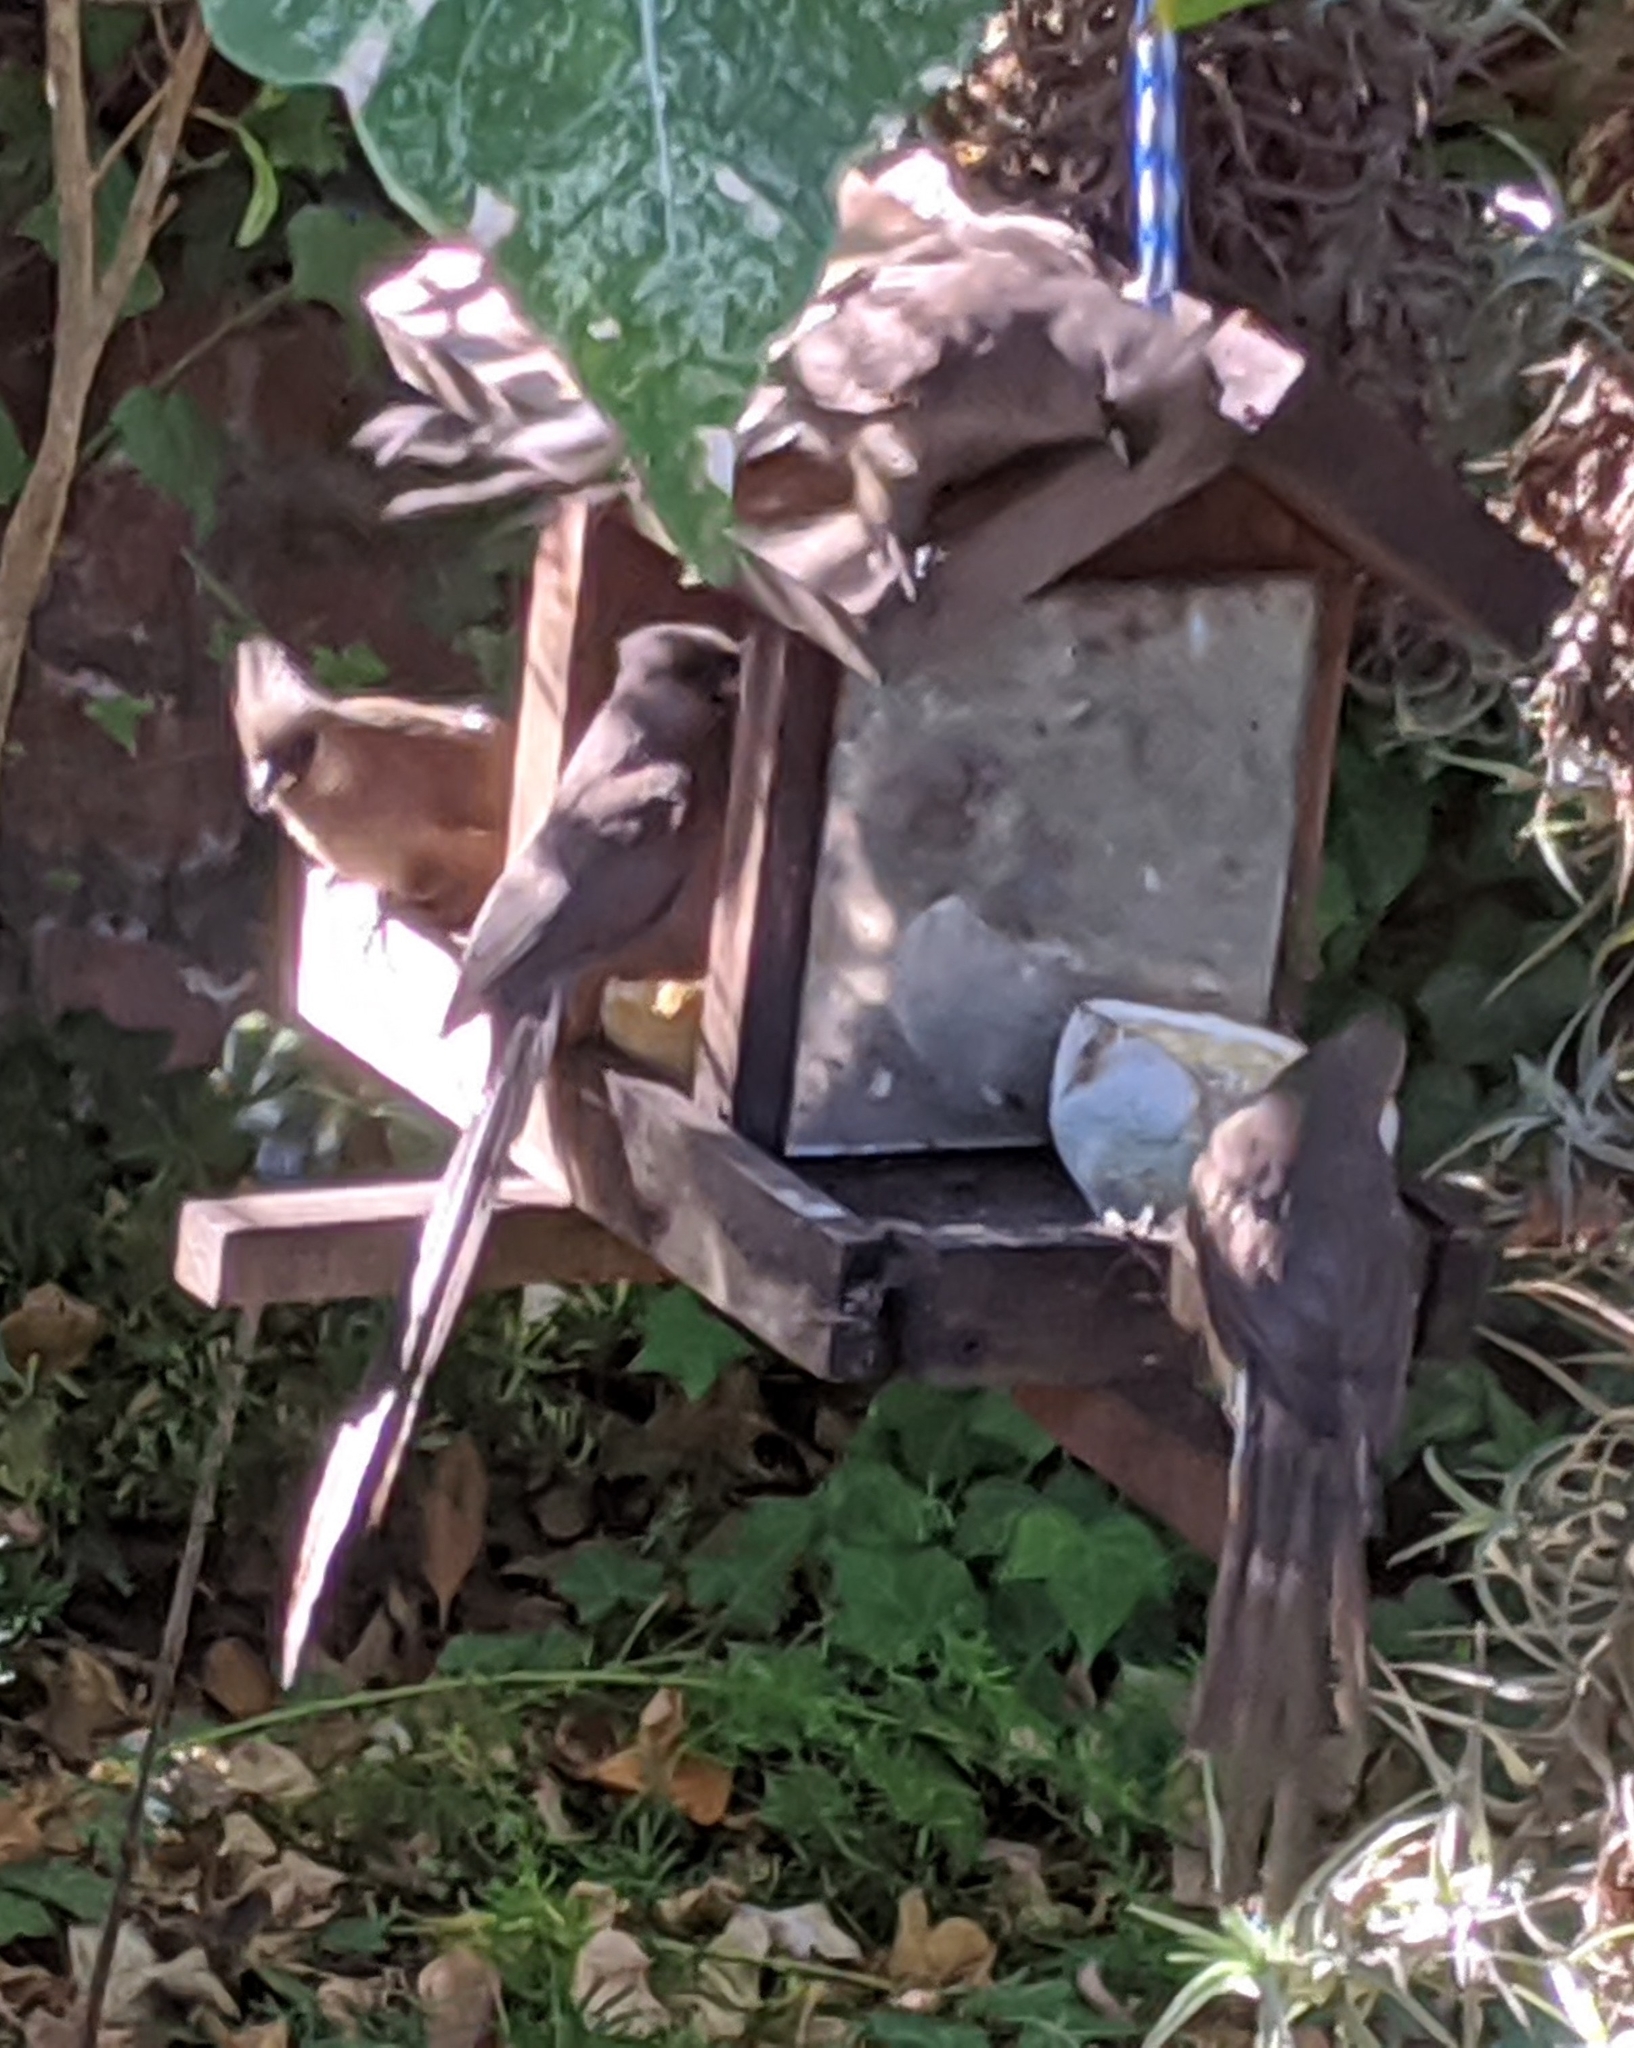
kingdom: Animalia
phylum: Chordata
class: Aves
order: Coliiformes
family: Coliidae
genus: Colius
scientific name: Colius striatus
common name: Speckled mousebird
